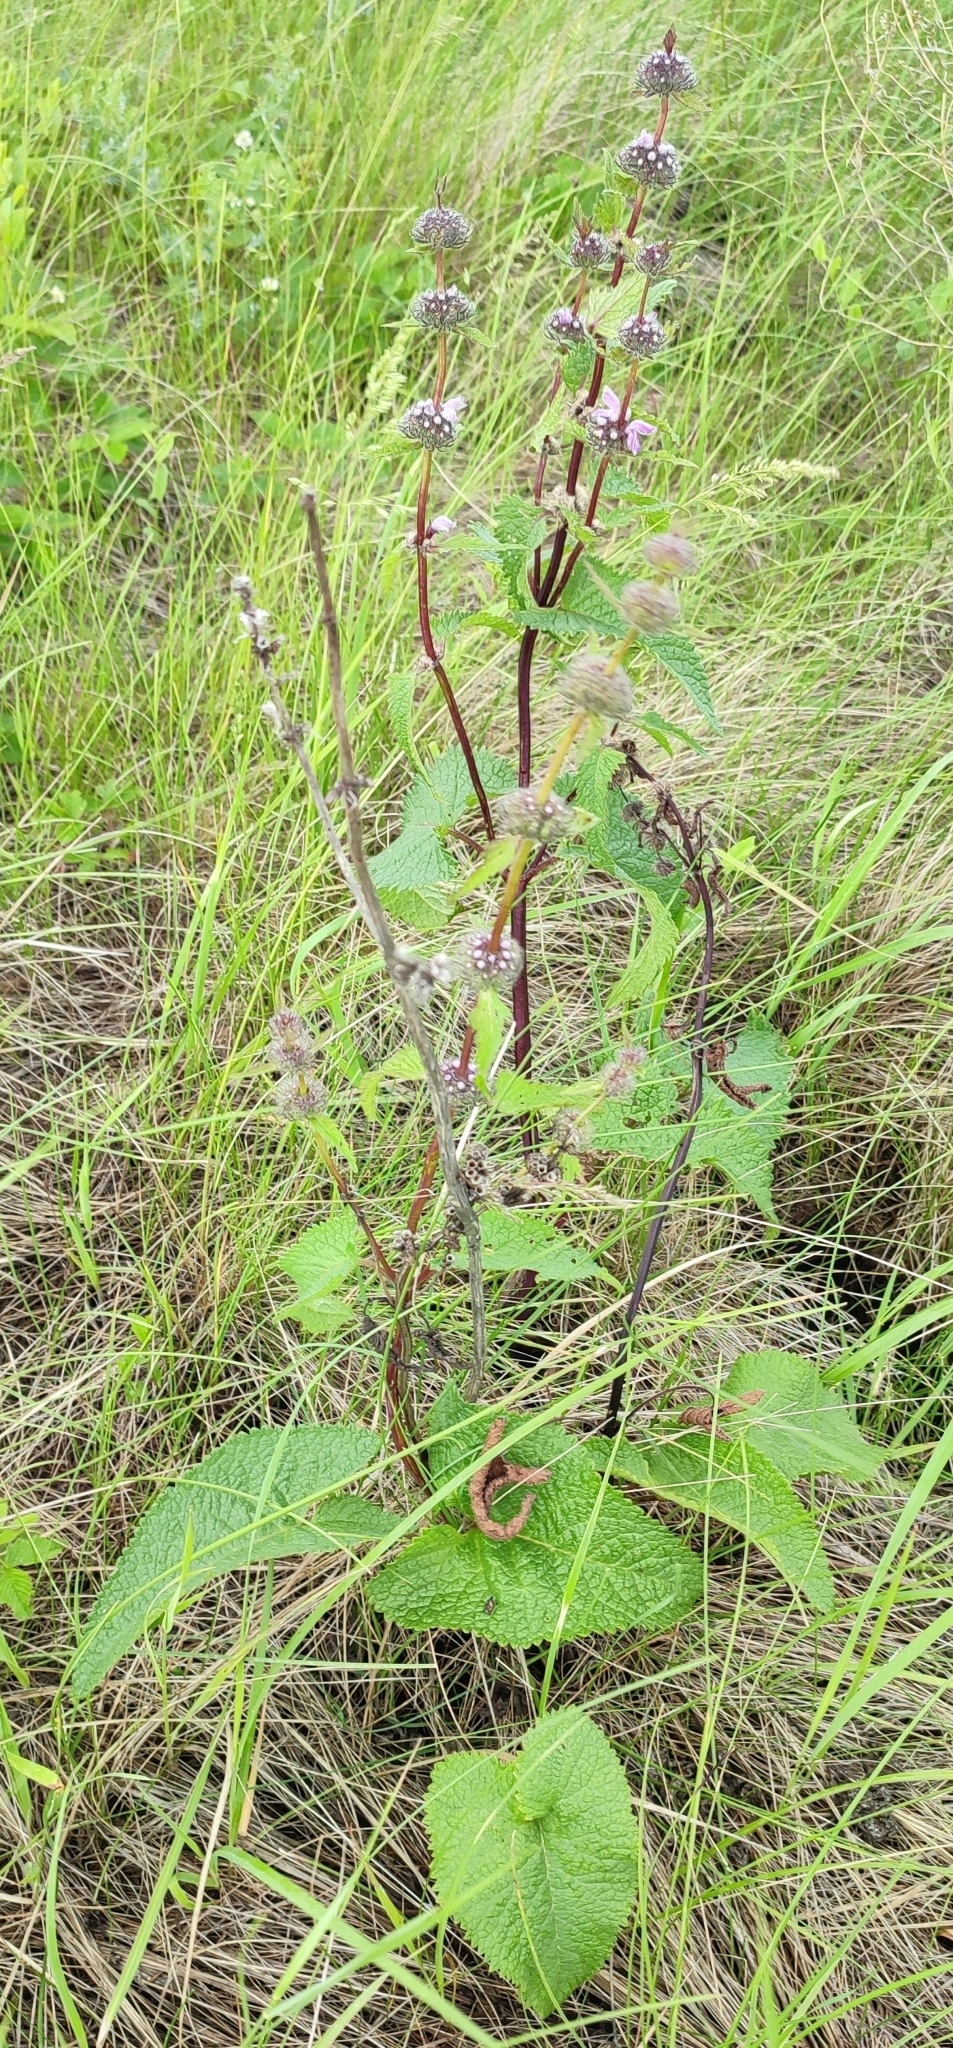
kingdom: Plantae
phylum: Tracheophyta
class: Magnoliopsida
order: Lamiales
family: Lamiaceae
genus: Phlomoides
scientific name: Phlomoides tuberosa
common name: Tuberous jerusalem sage
